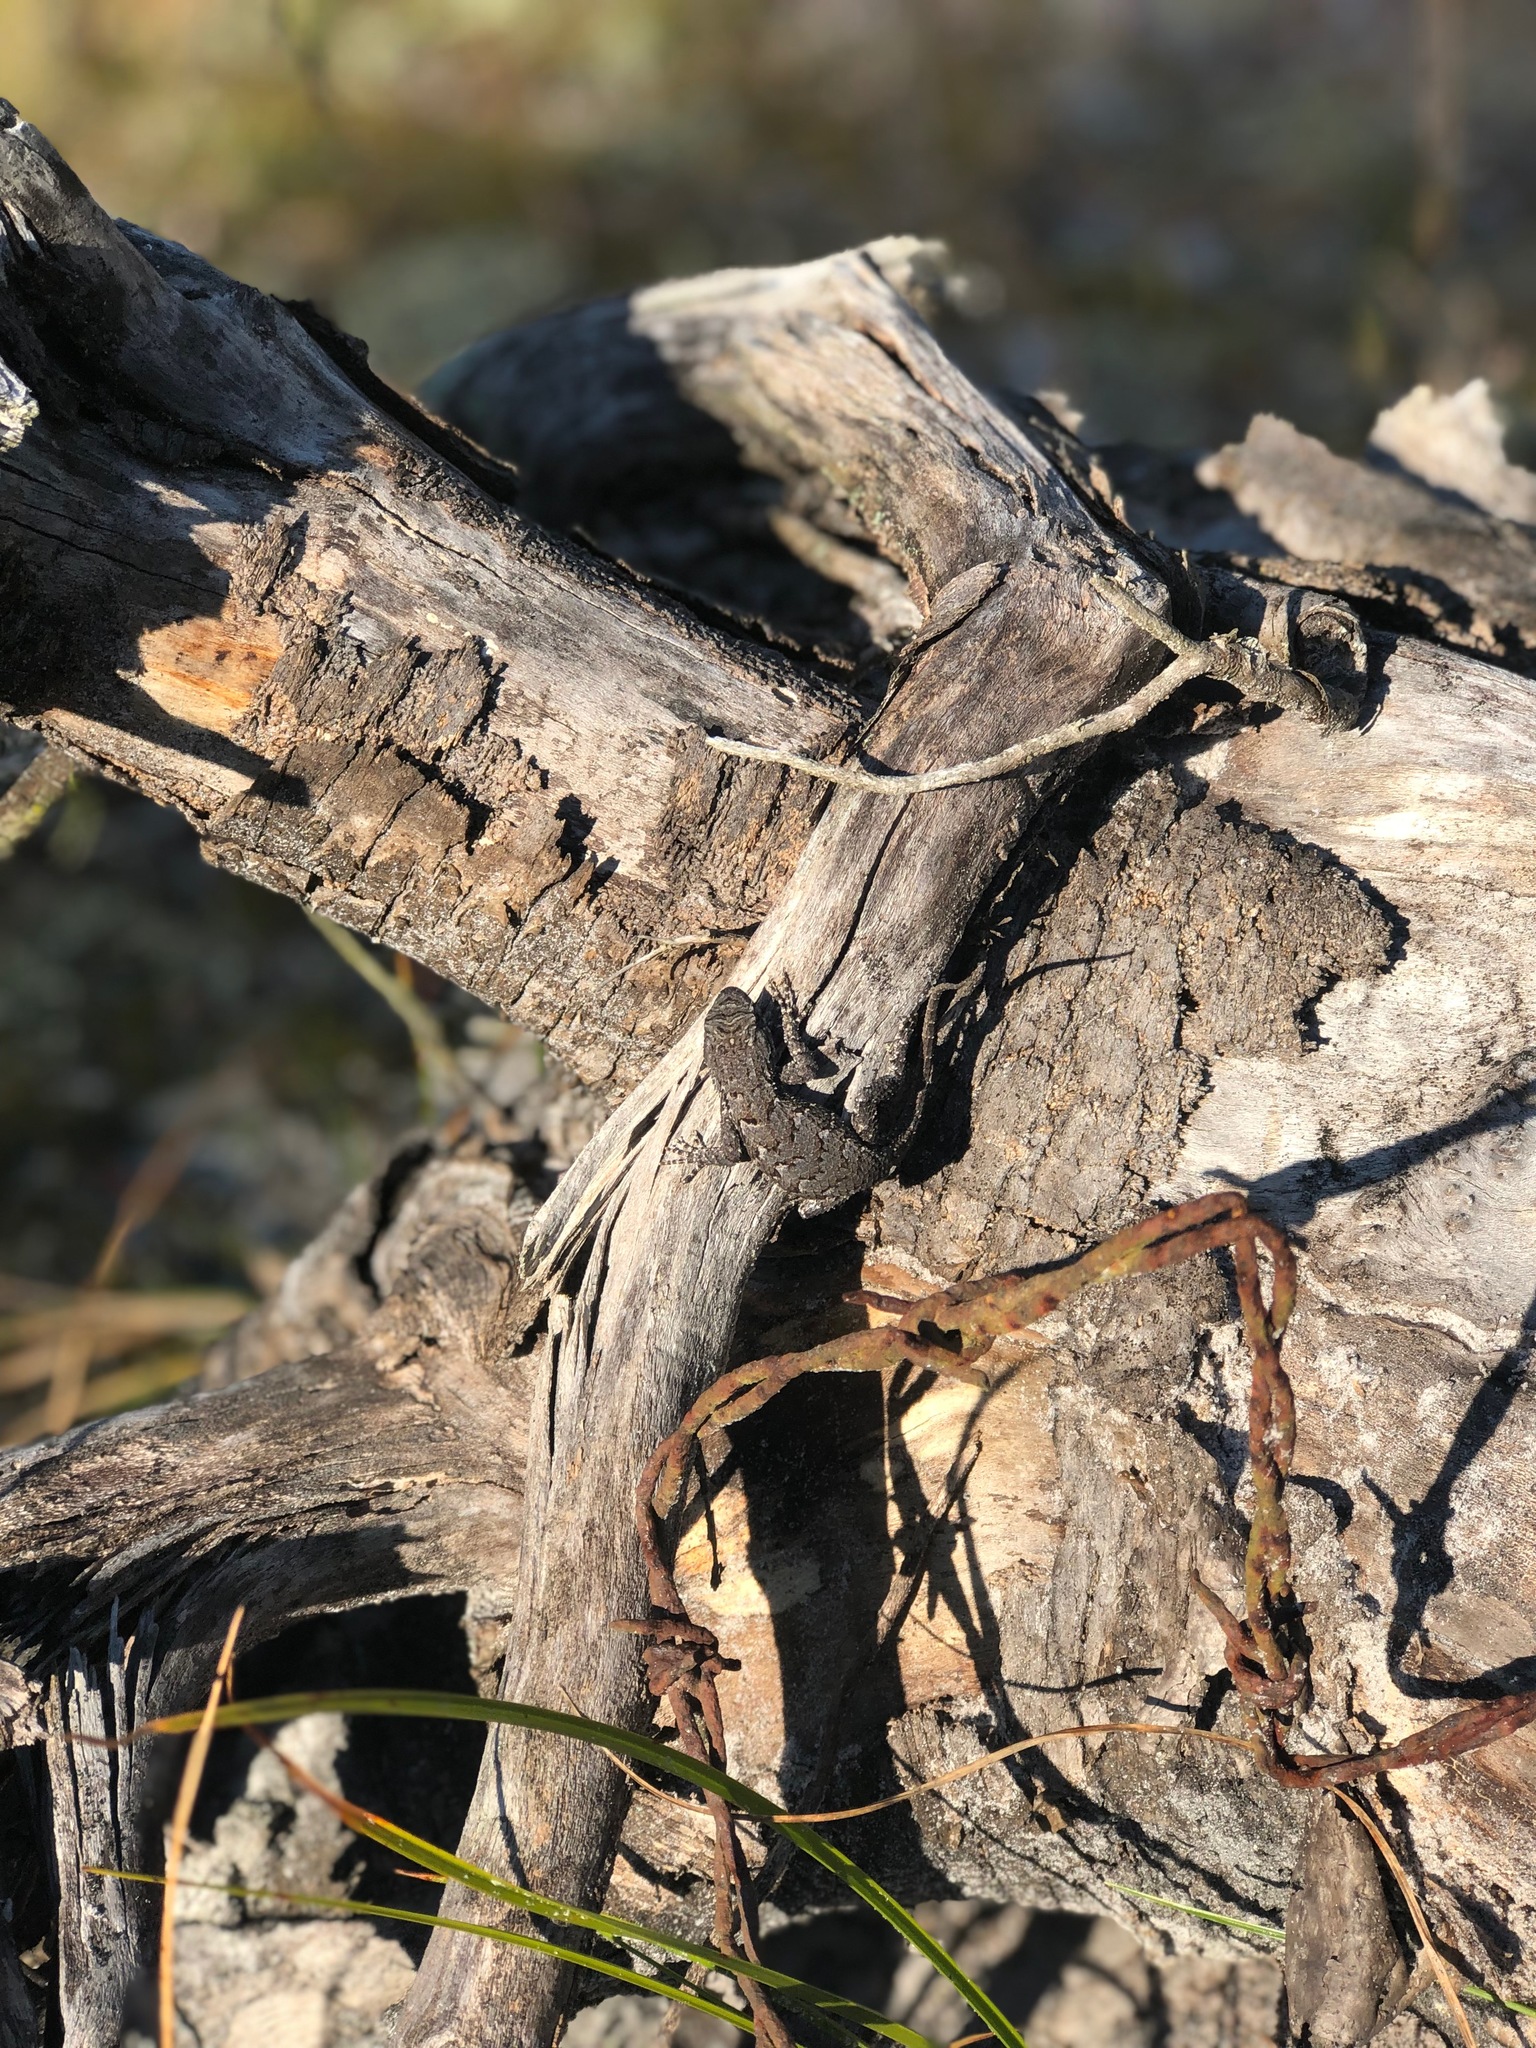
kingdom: Animalia
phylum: Chordata
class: Squamata
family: Phrynosomatidae
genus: Sceloporus
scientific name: Sceloporus undulatus
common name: Eastern fence lizard
